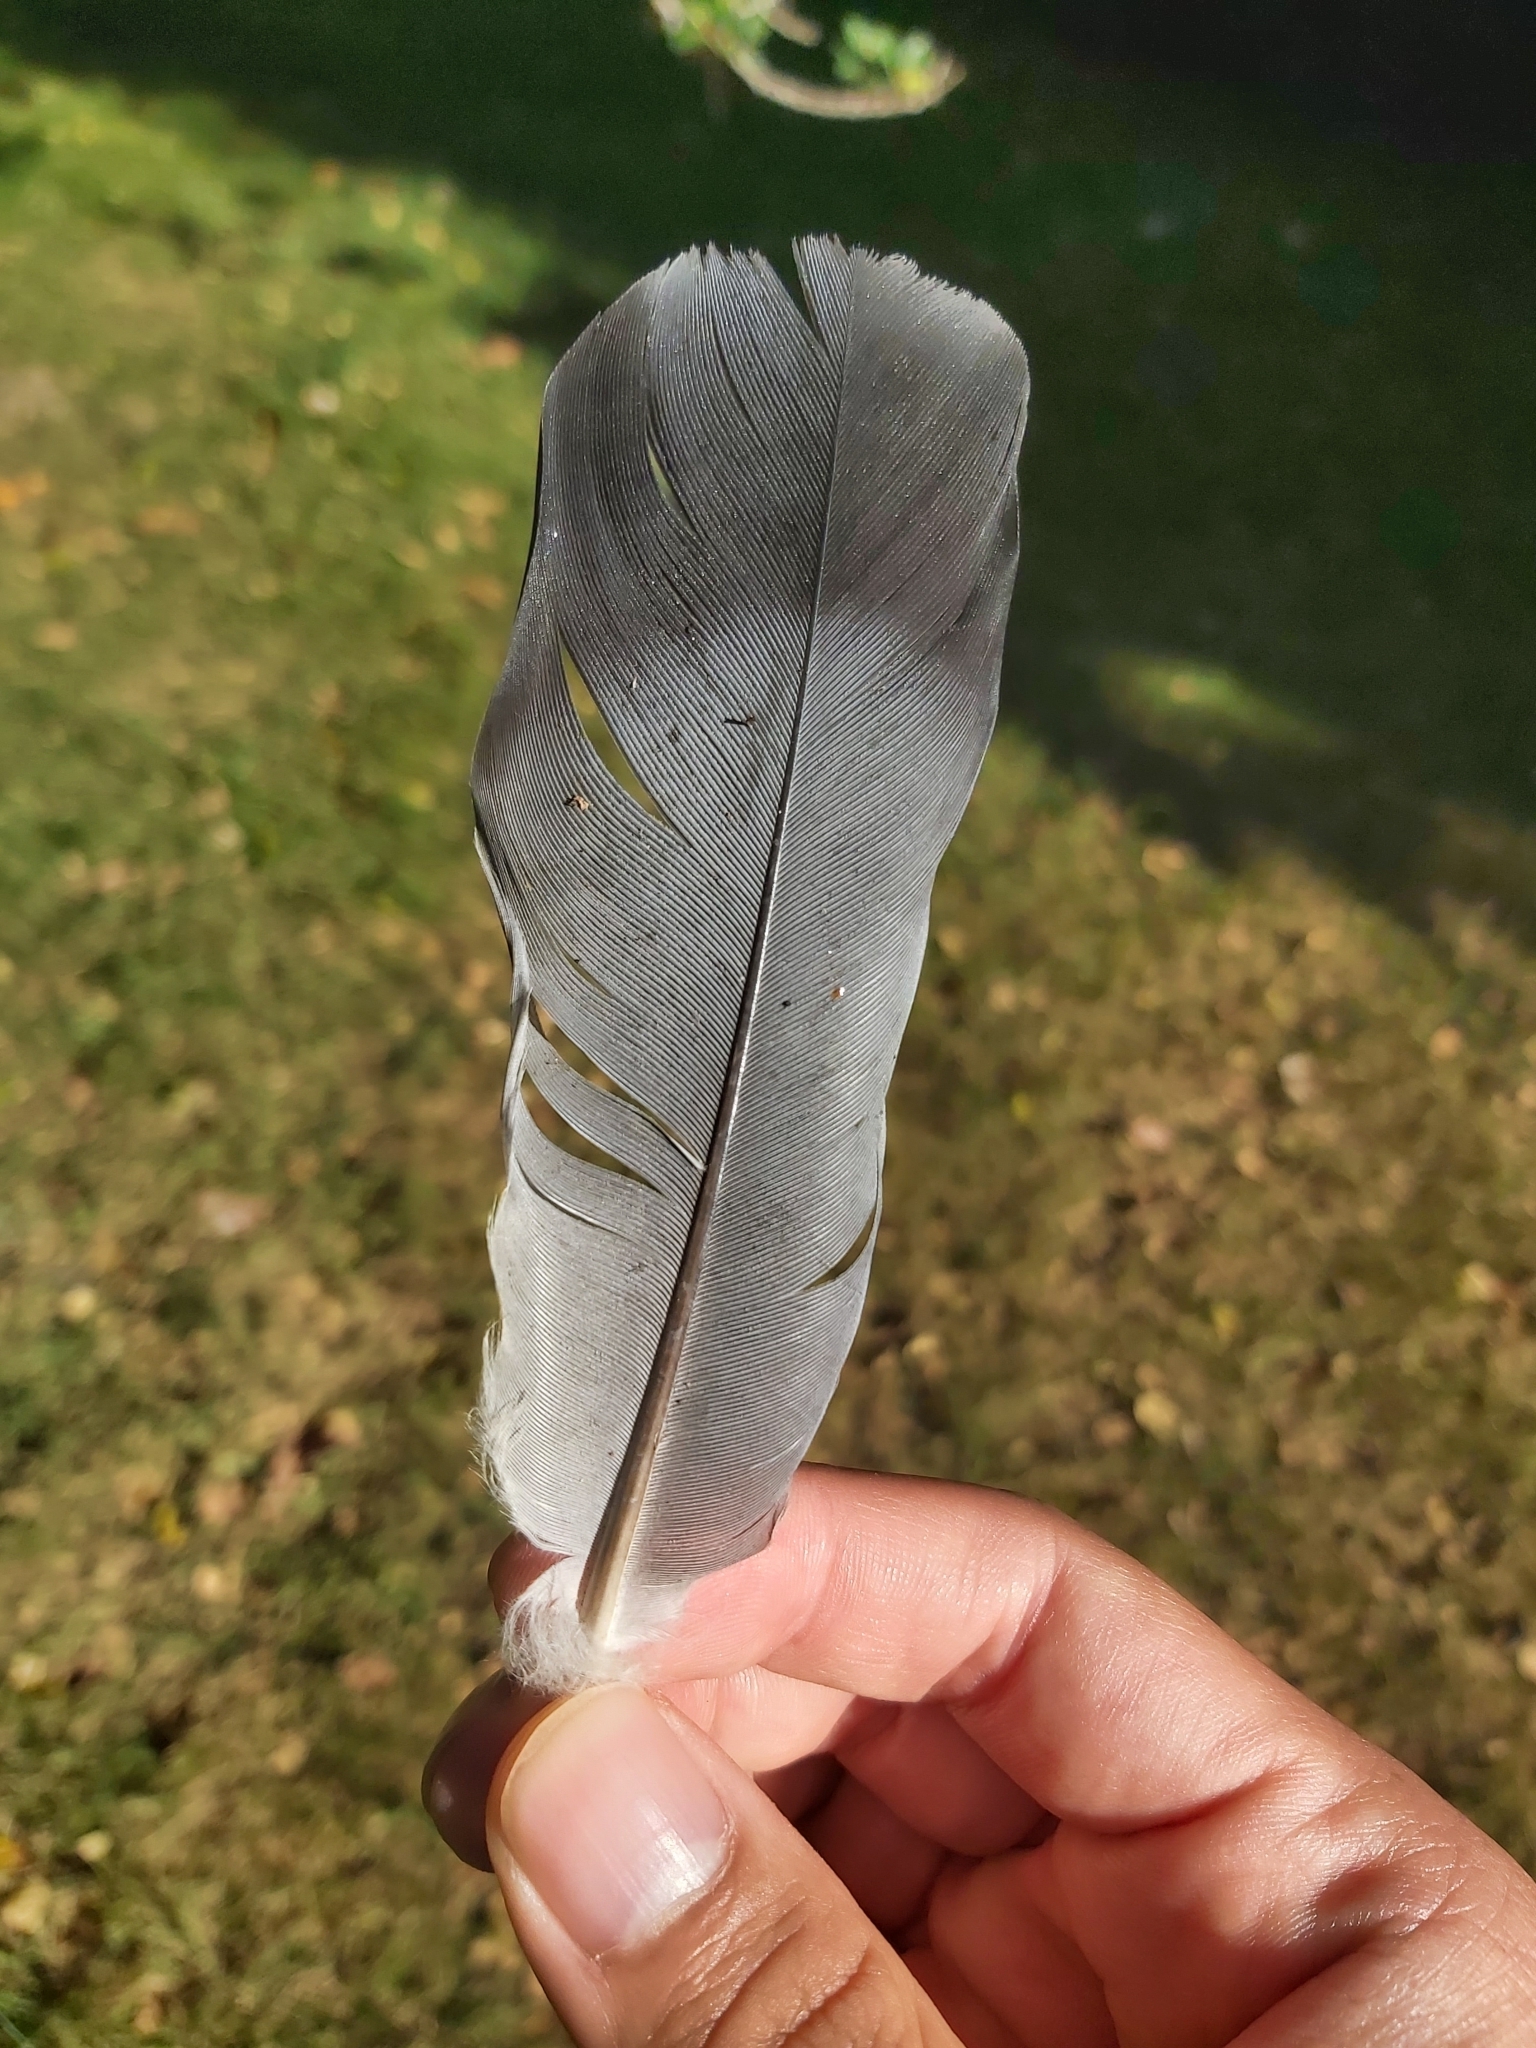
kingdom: Animalia
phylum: Chordata
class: Aves
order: Columbiformes
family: Columbidae
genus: Columba
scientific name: Columba livia
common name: Rock pigeon
